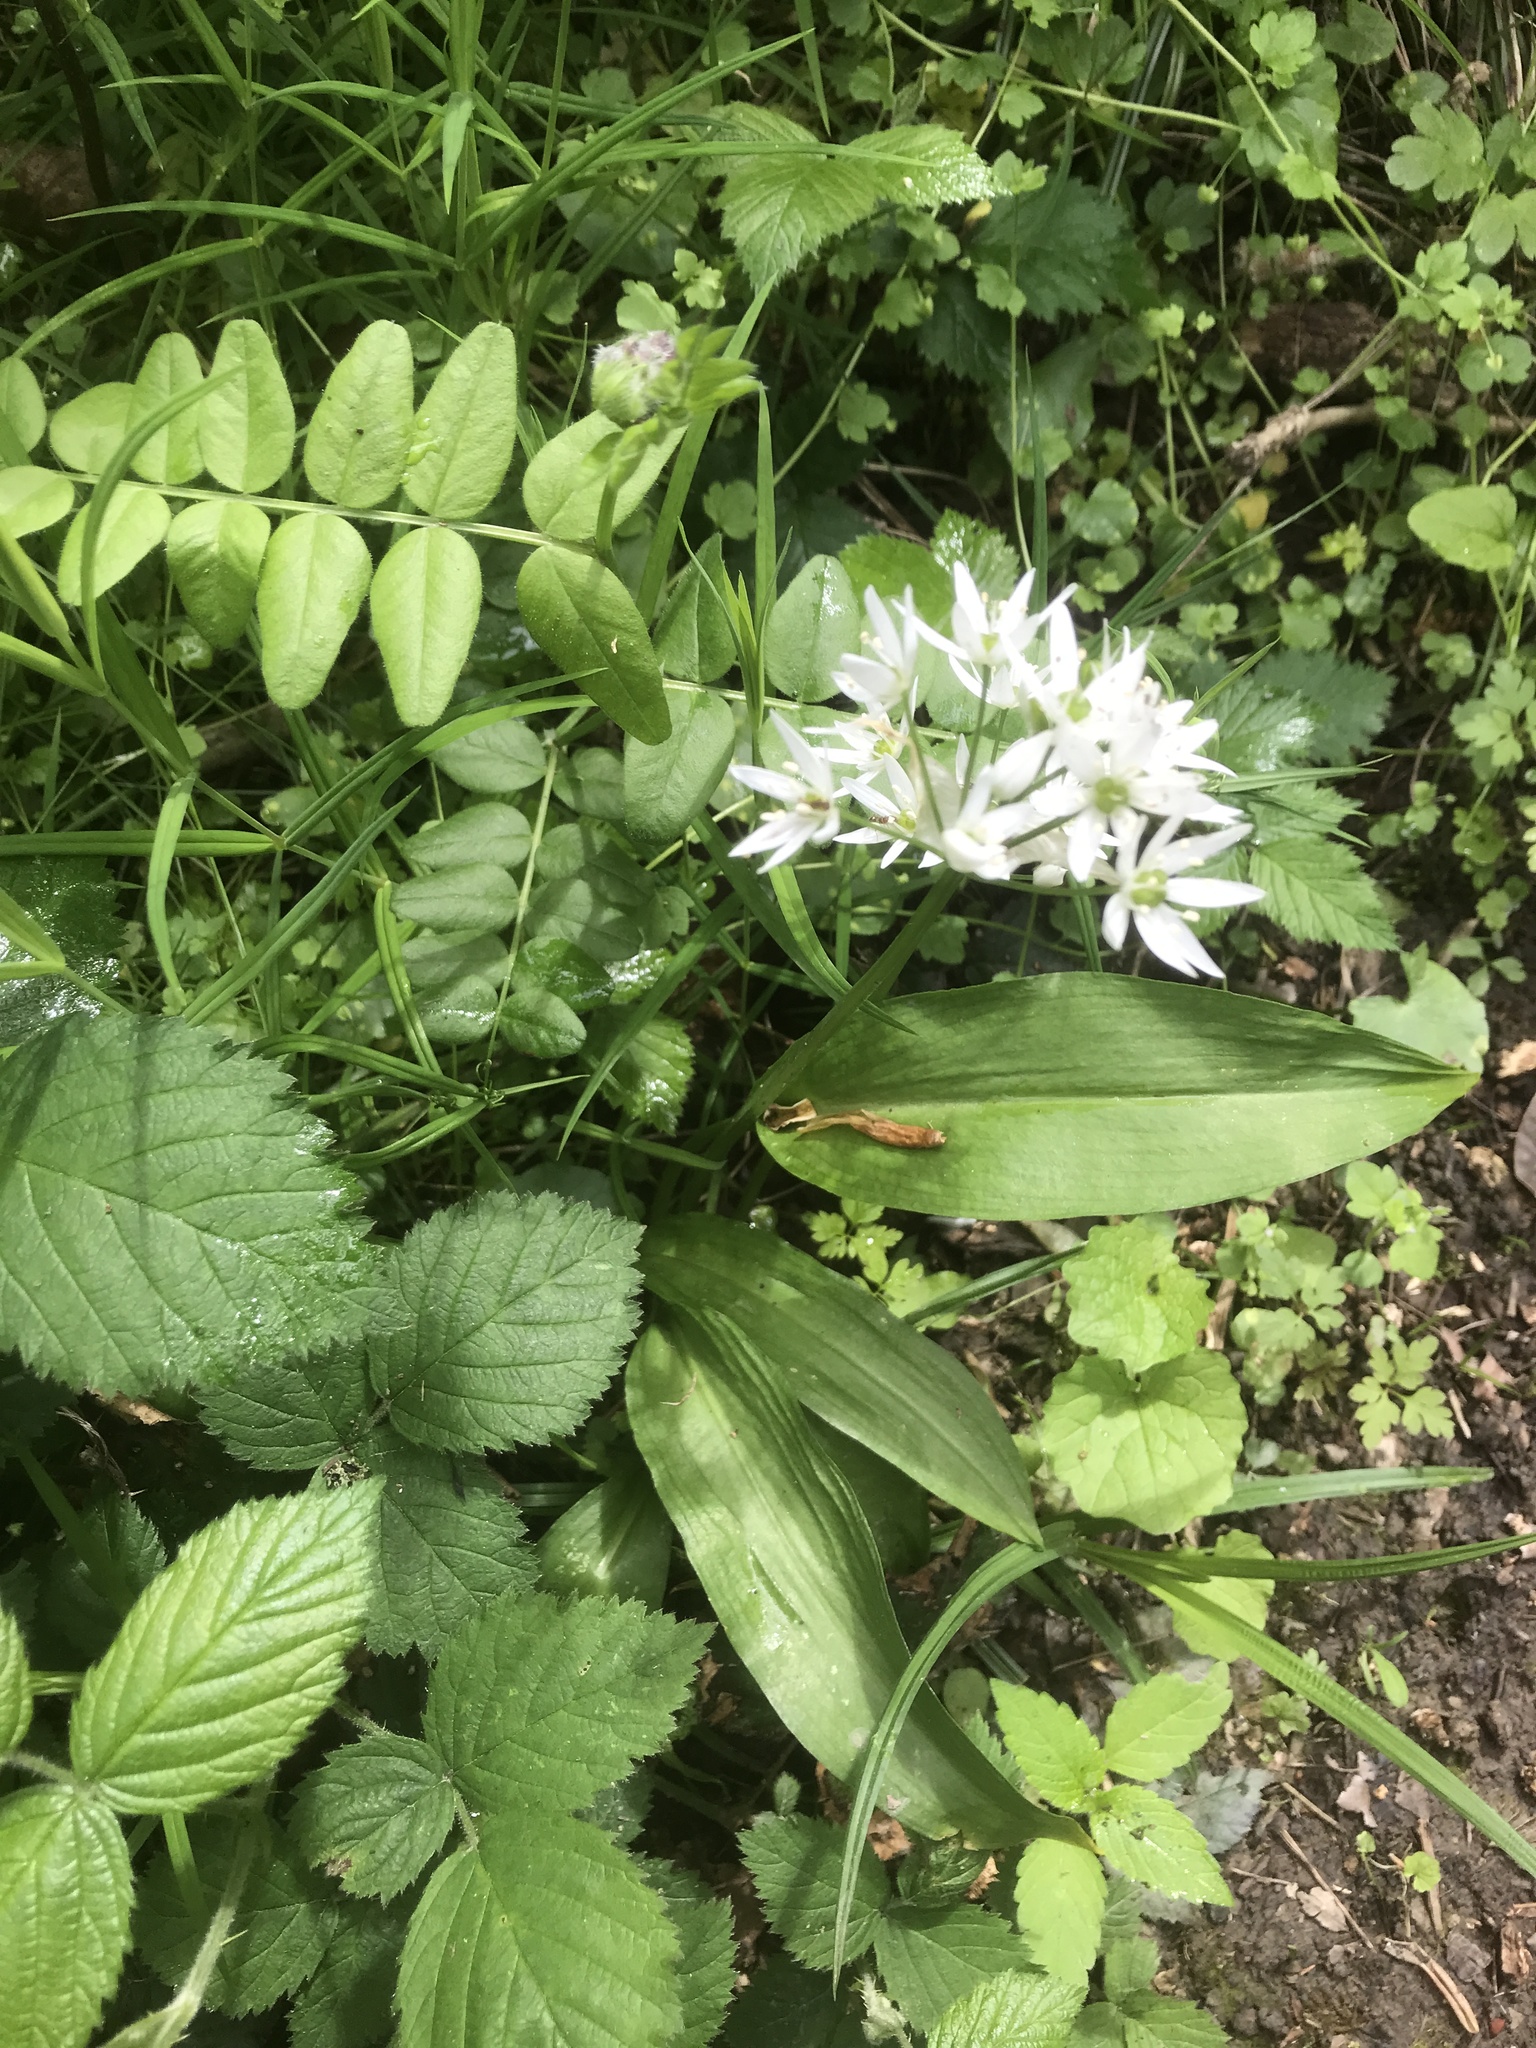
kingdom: Plantae
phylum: Tracheophyta
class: Liliopsida
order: Asparagales
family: Amaryllidaceae
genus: Allium
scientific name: Allium ursinum
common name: Ramsons
